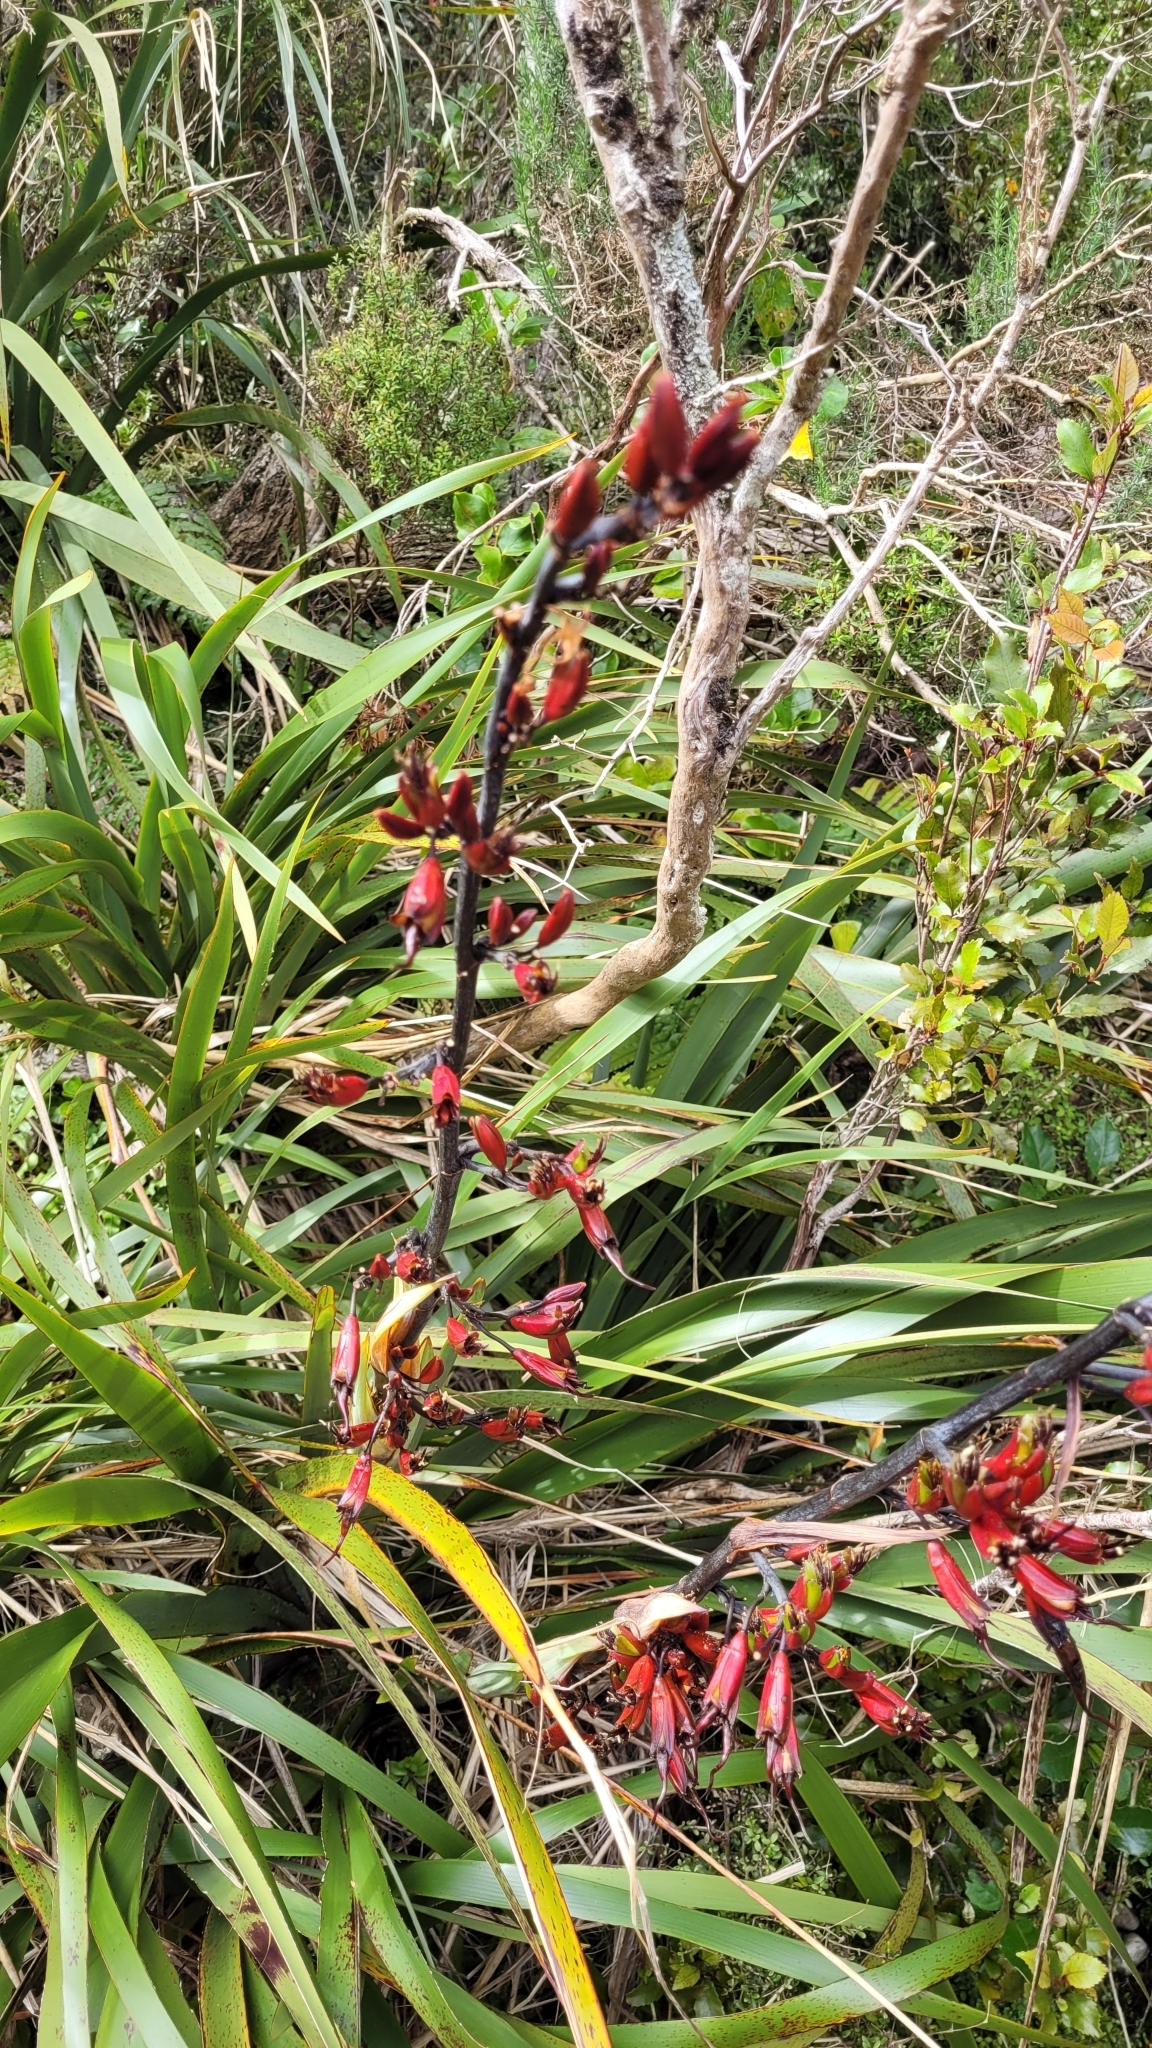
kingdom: Plantae
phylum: Tracheophyta
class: Liliopsida
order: Asparagales
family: Asphodelaceae
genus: Phormium
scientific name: Phormium colensoi
